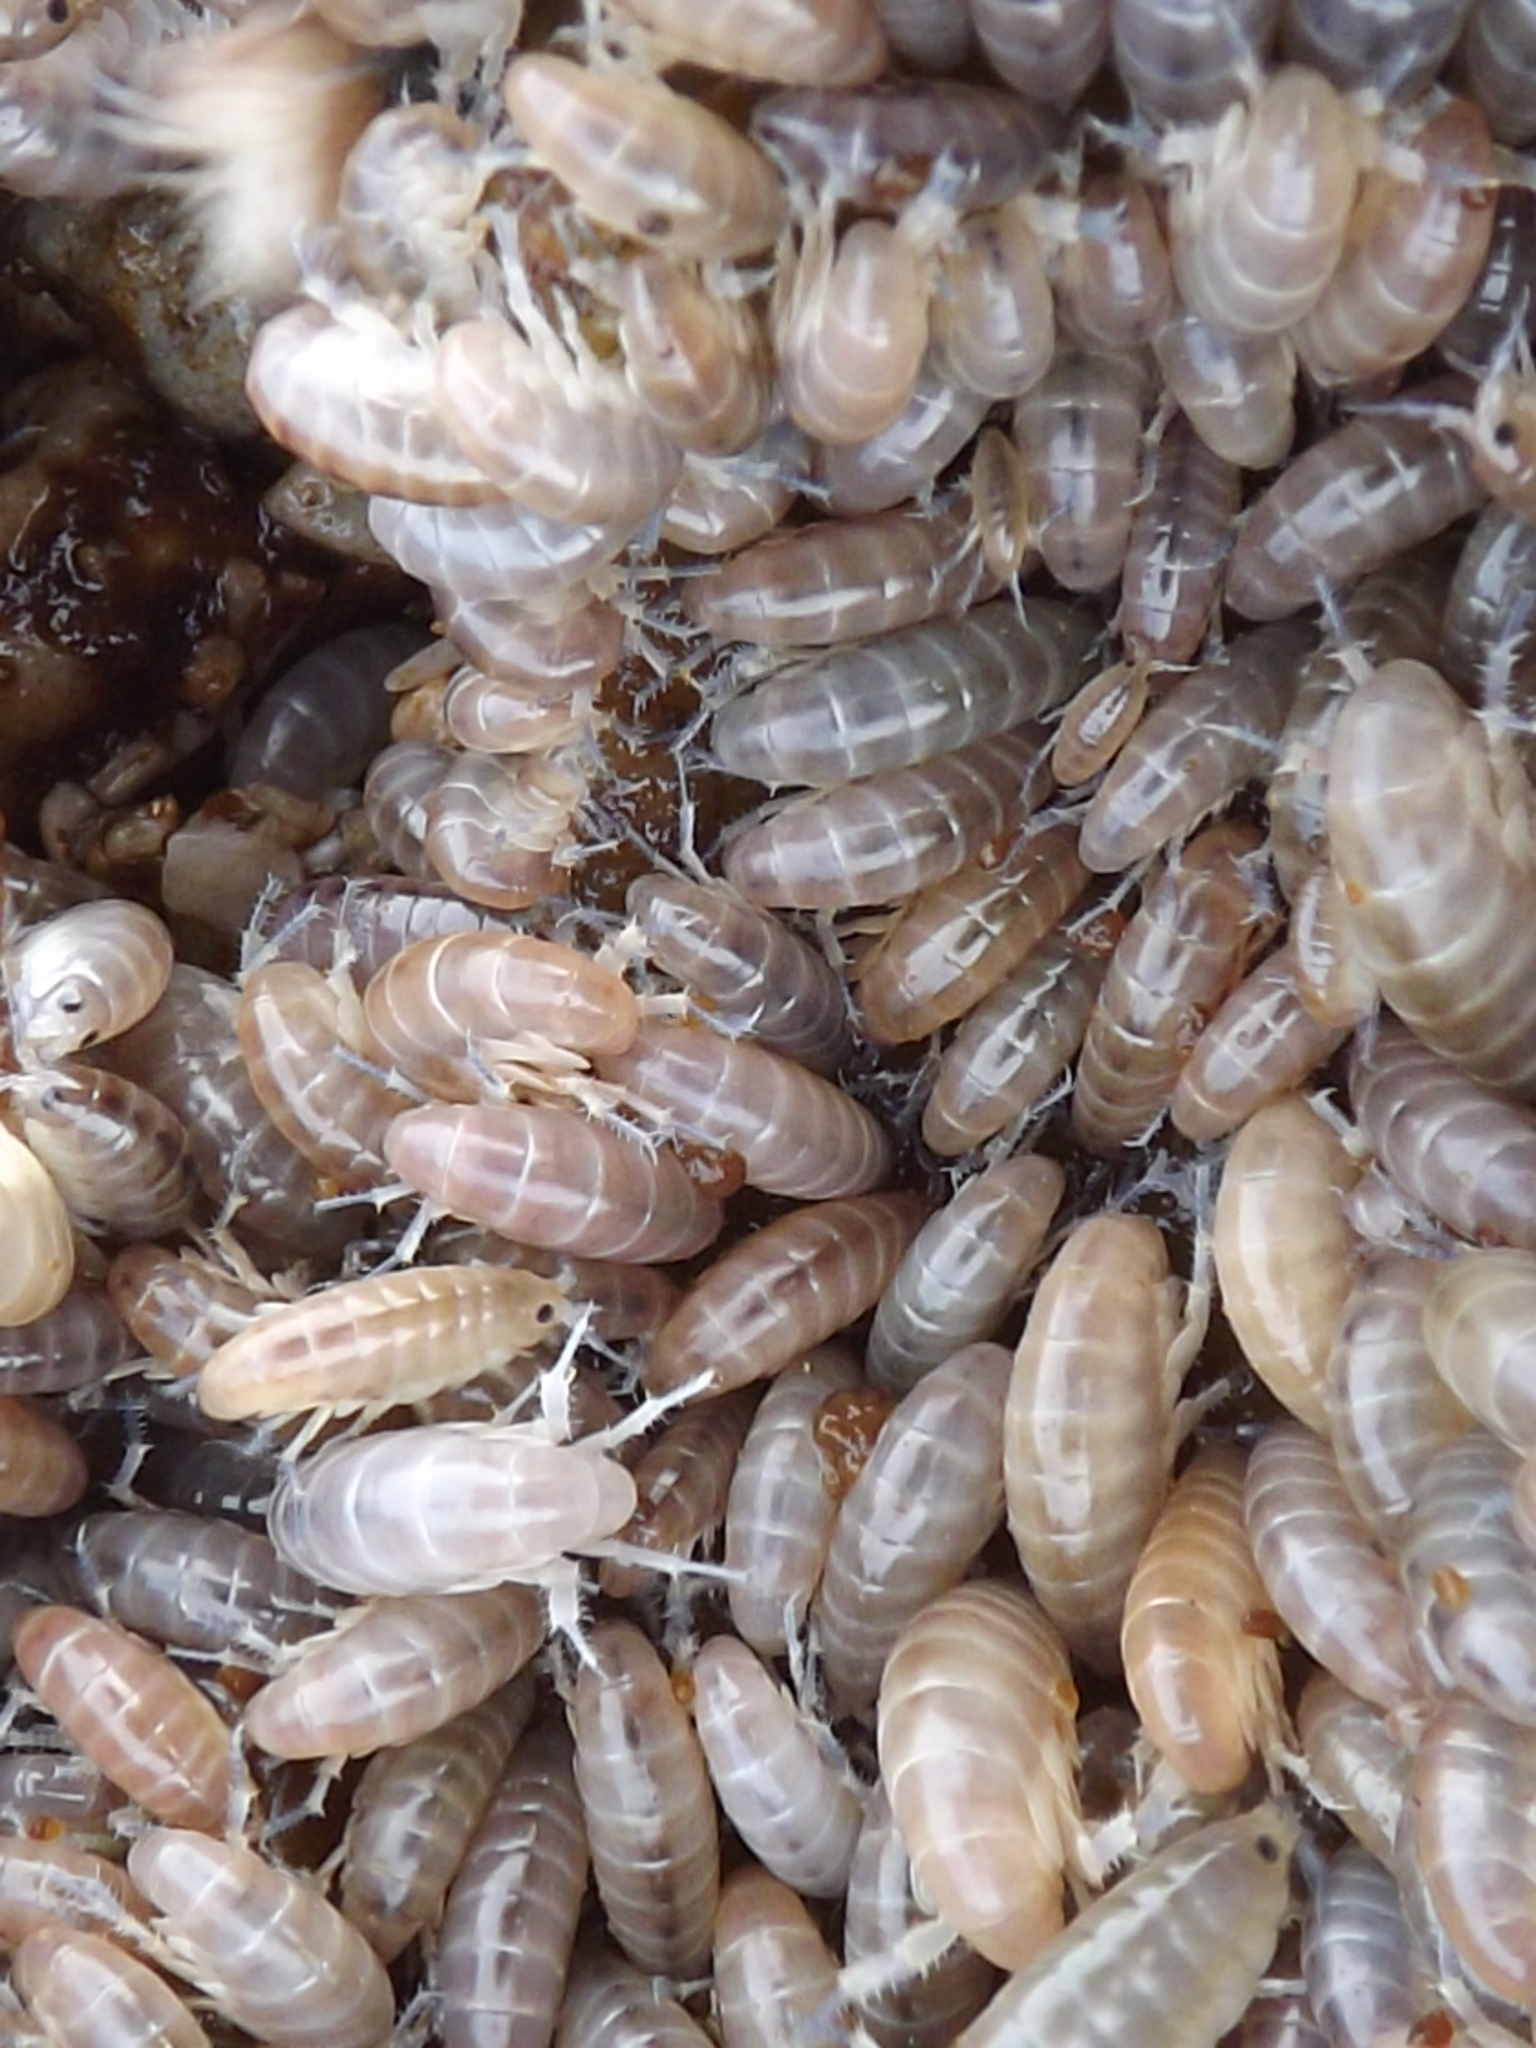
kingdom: Animalia
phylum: Arthropoda
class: Malacostraca
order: Amphipoda
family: Talitridae
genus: Capeorchestia
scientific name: Capeorchestia capensis
